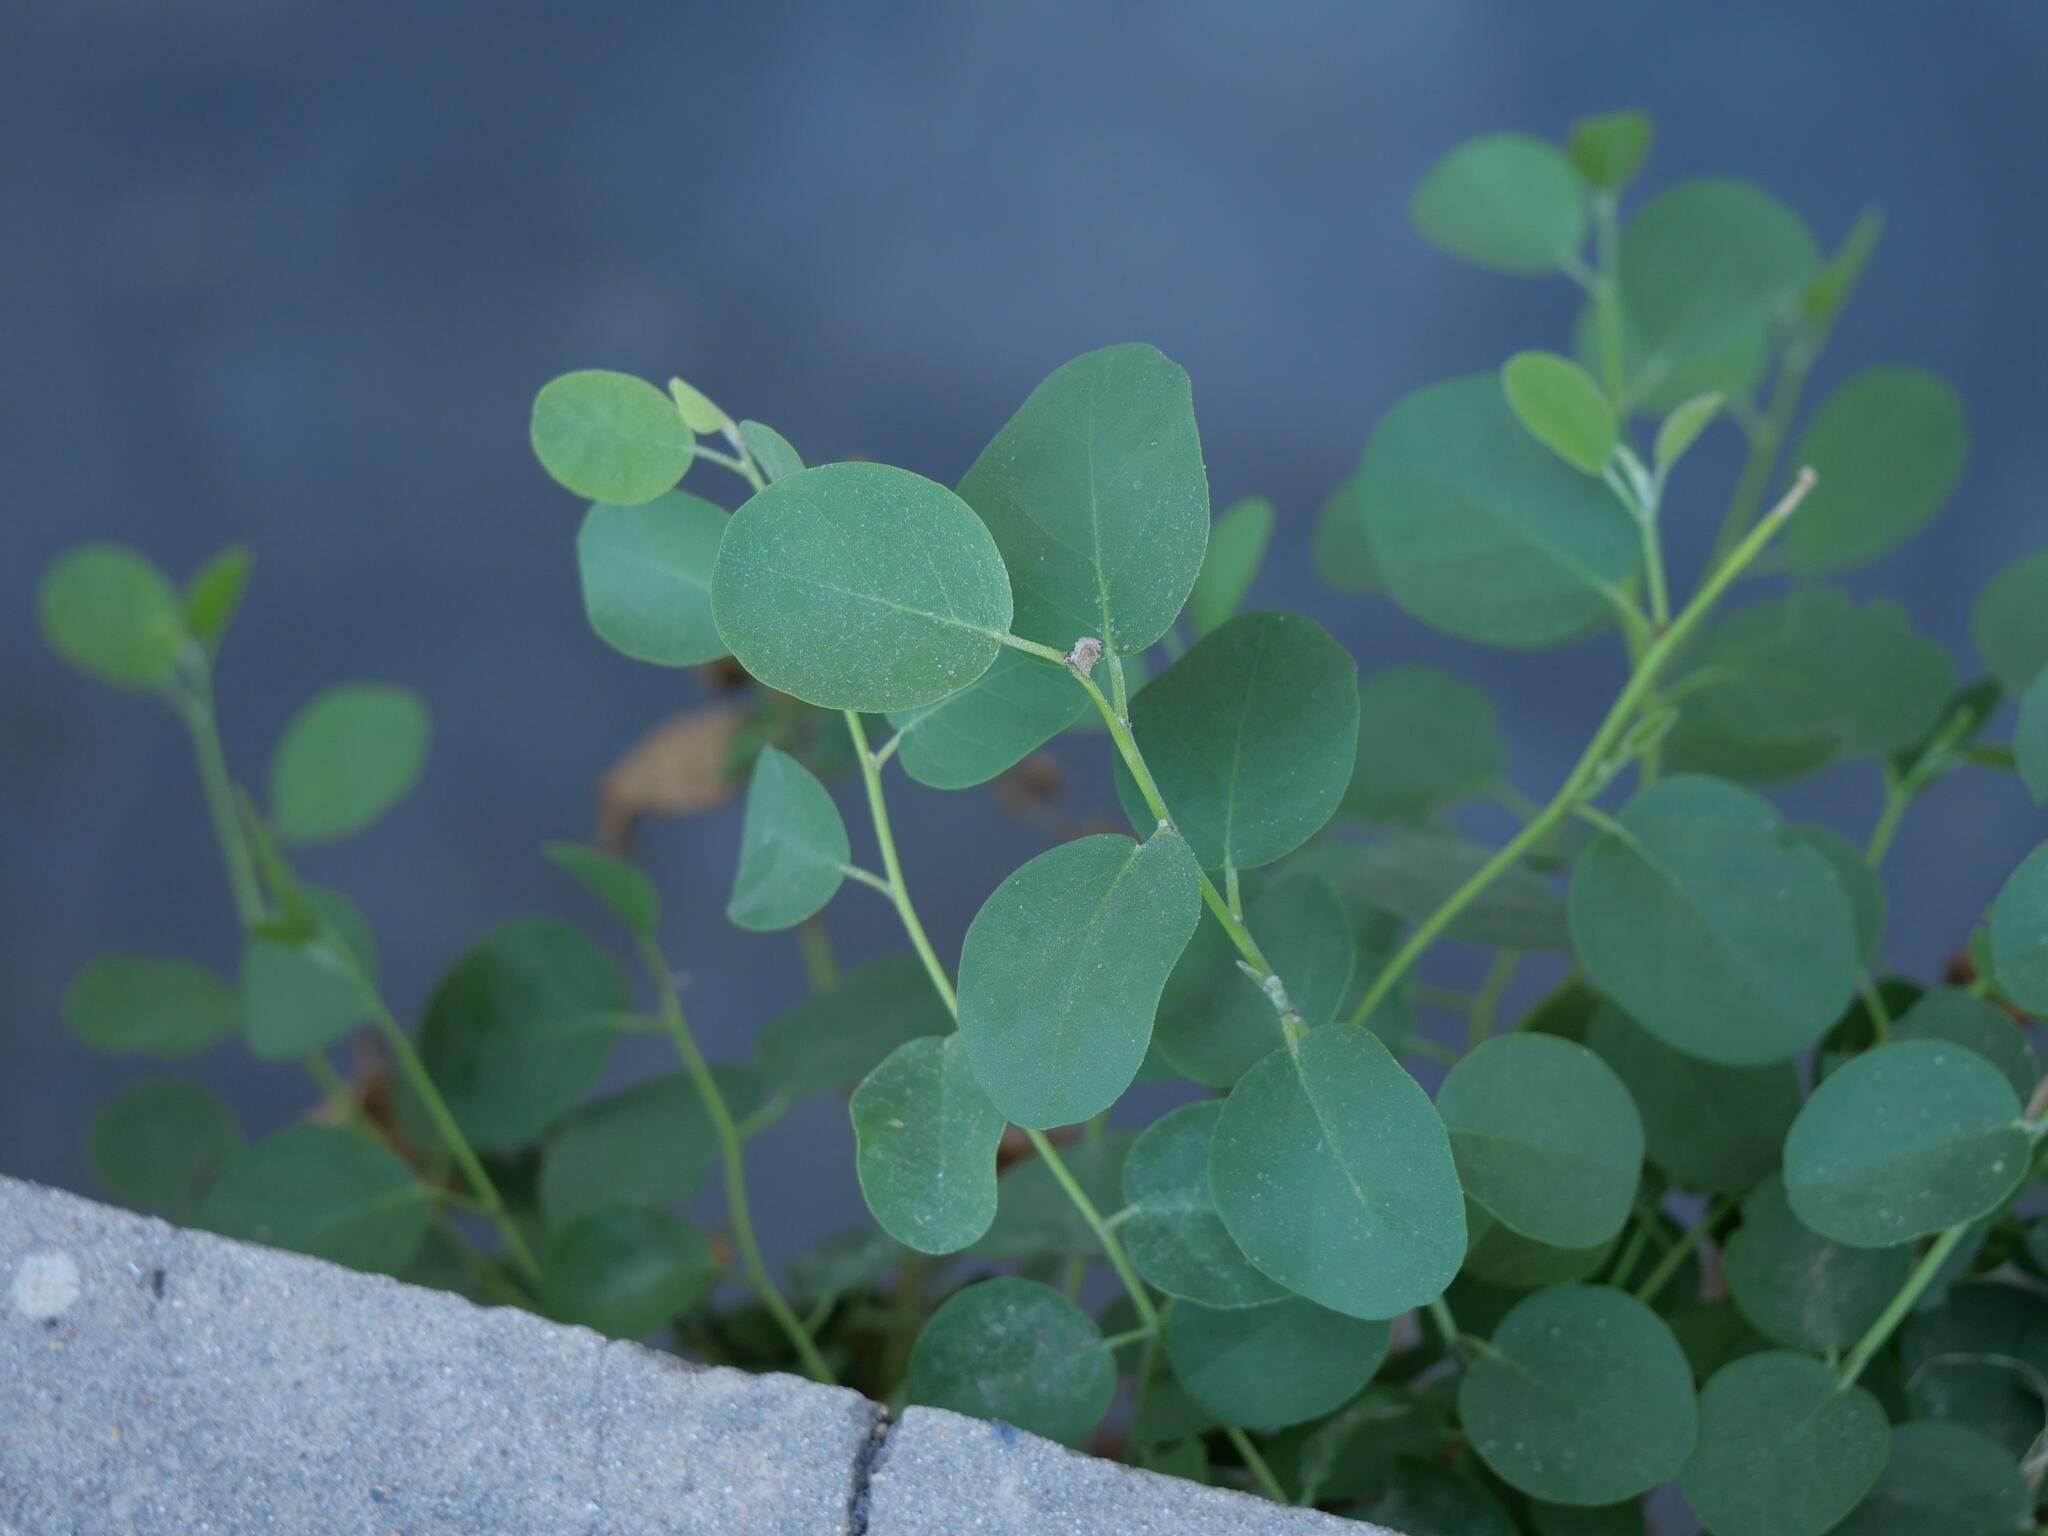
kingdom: Plantae
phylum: Tracheophyta
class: Magnoliopsida
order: Brassicales
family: Capparaceae
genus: Capparis
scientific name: Capparis orientalis
